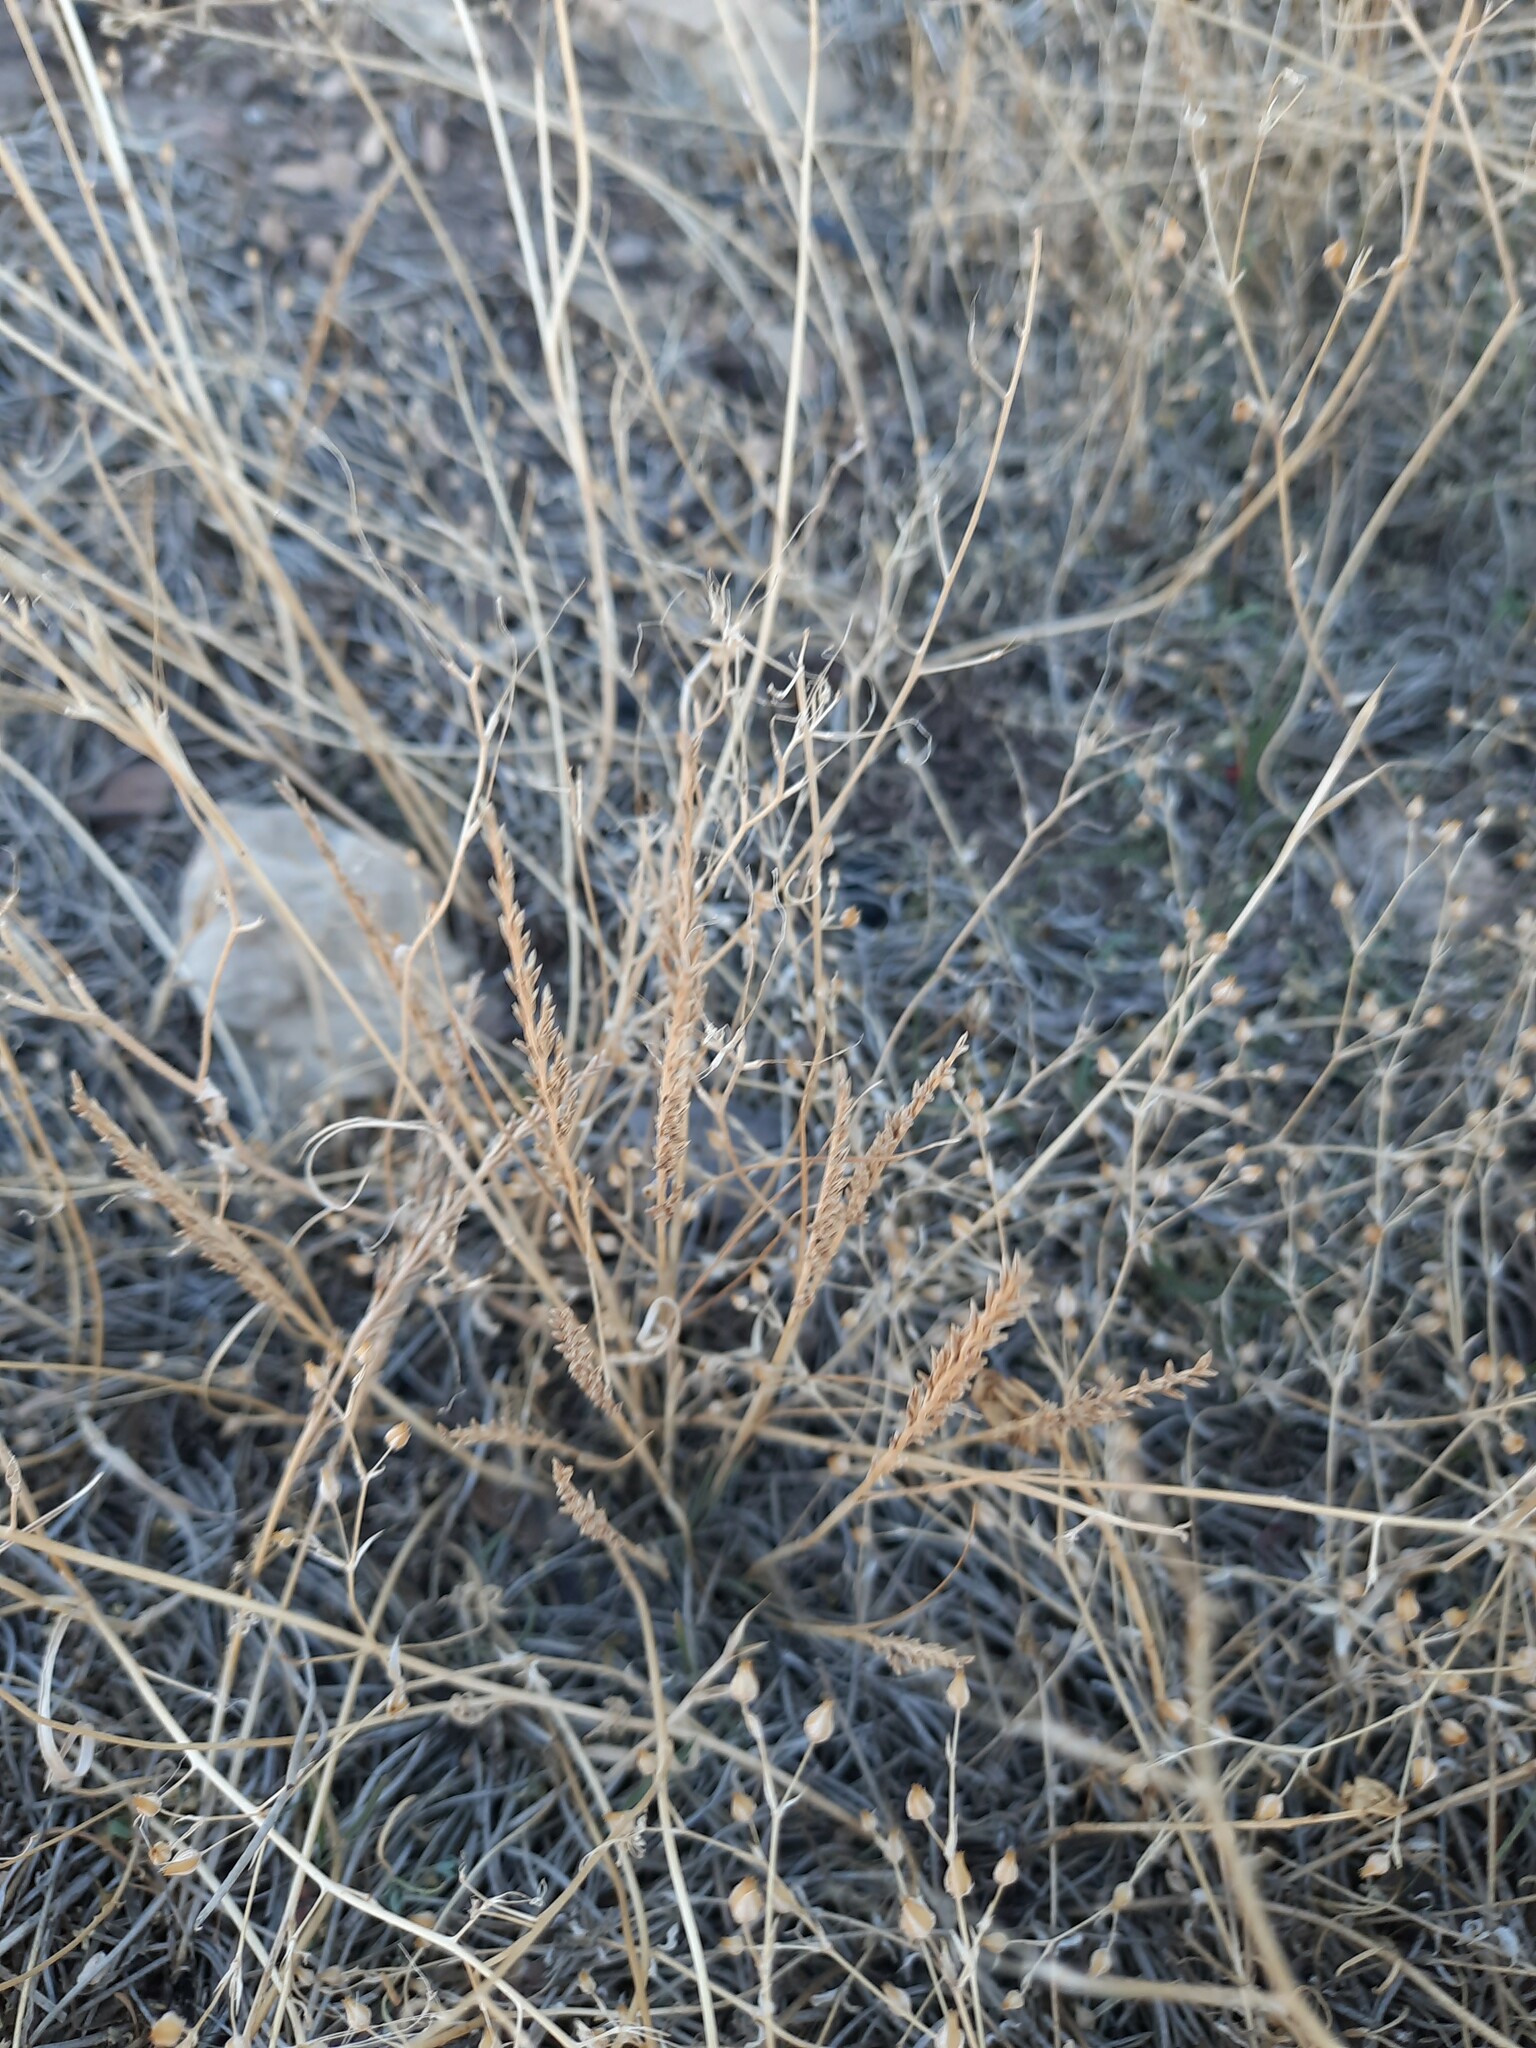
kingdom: Plantae
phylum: Tracheophyta
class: Liliopsida
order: Poales
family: Poaceae
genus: Catapodium
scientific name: Catapodium rigidum
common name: Fern-grass
